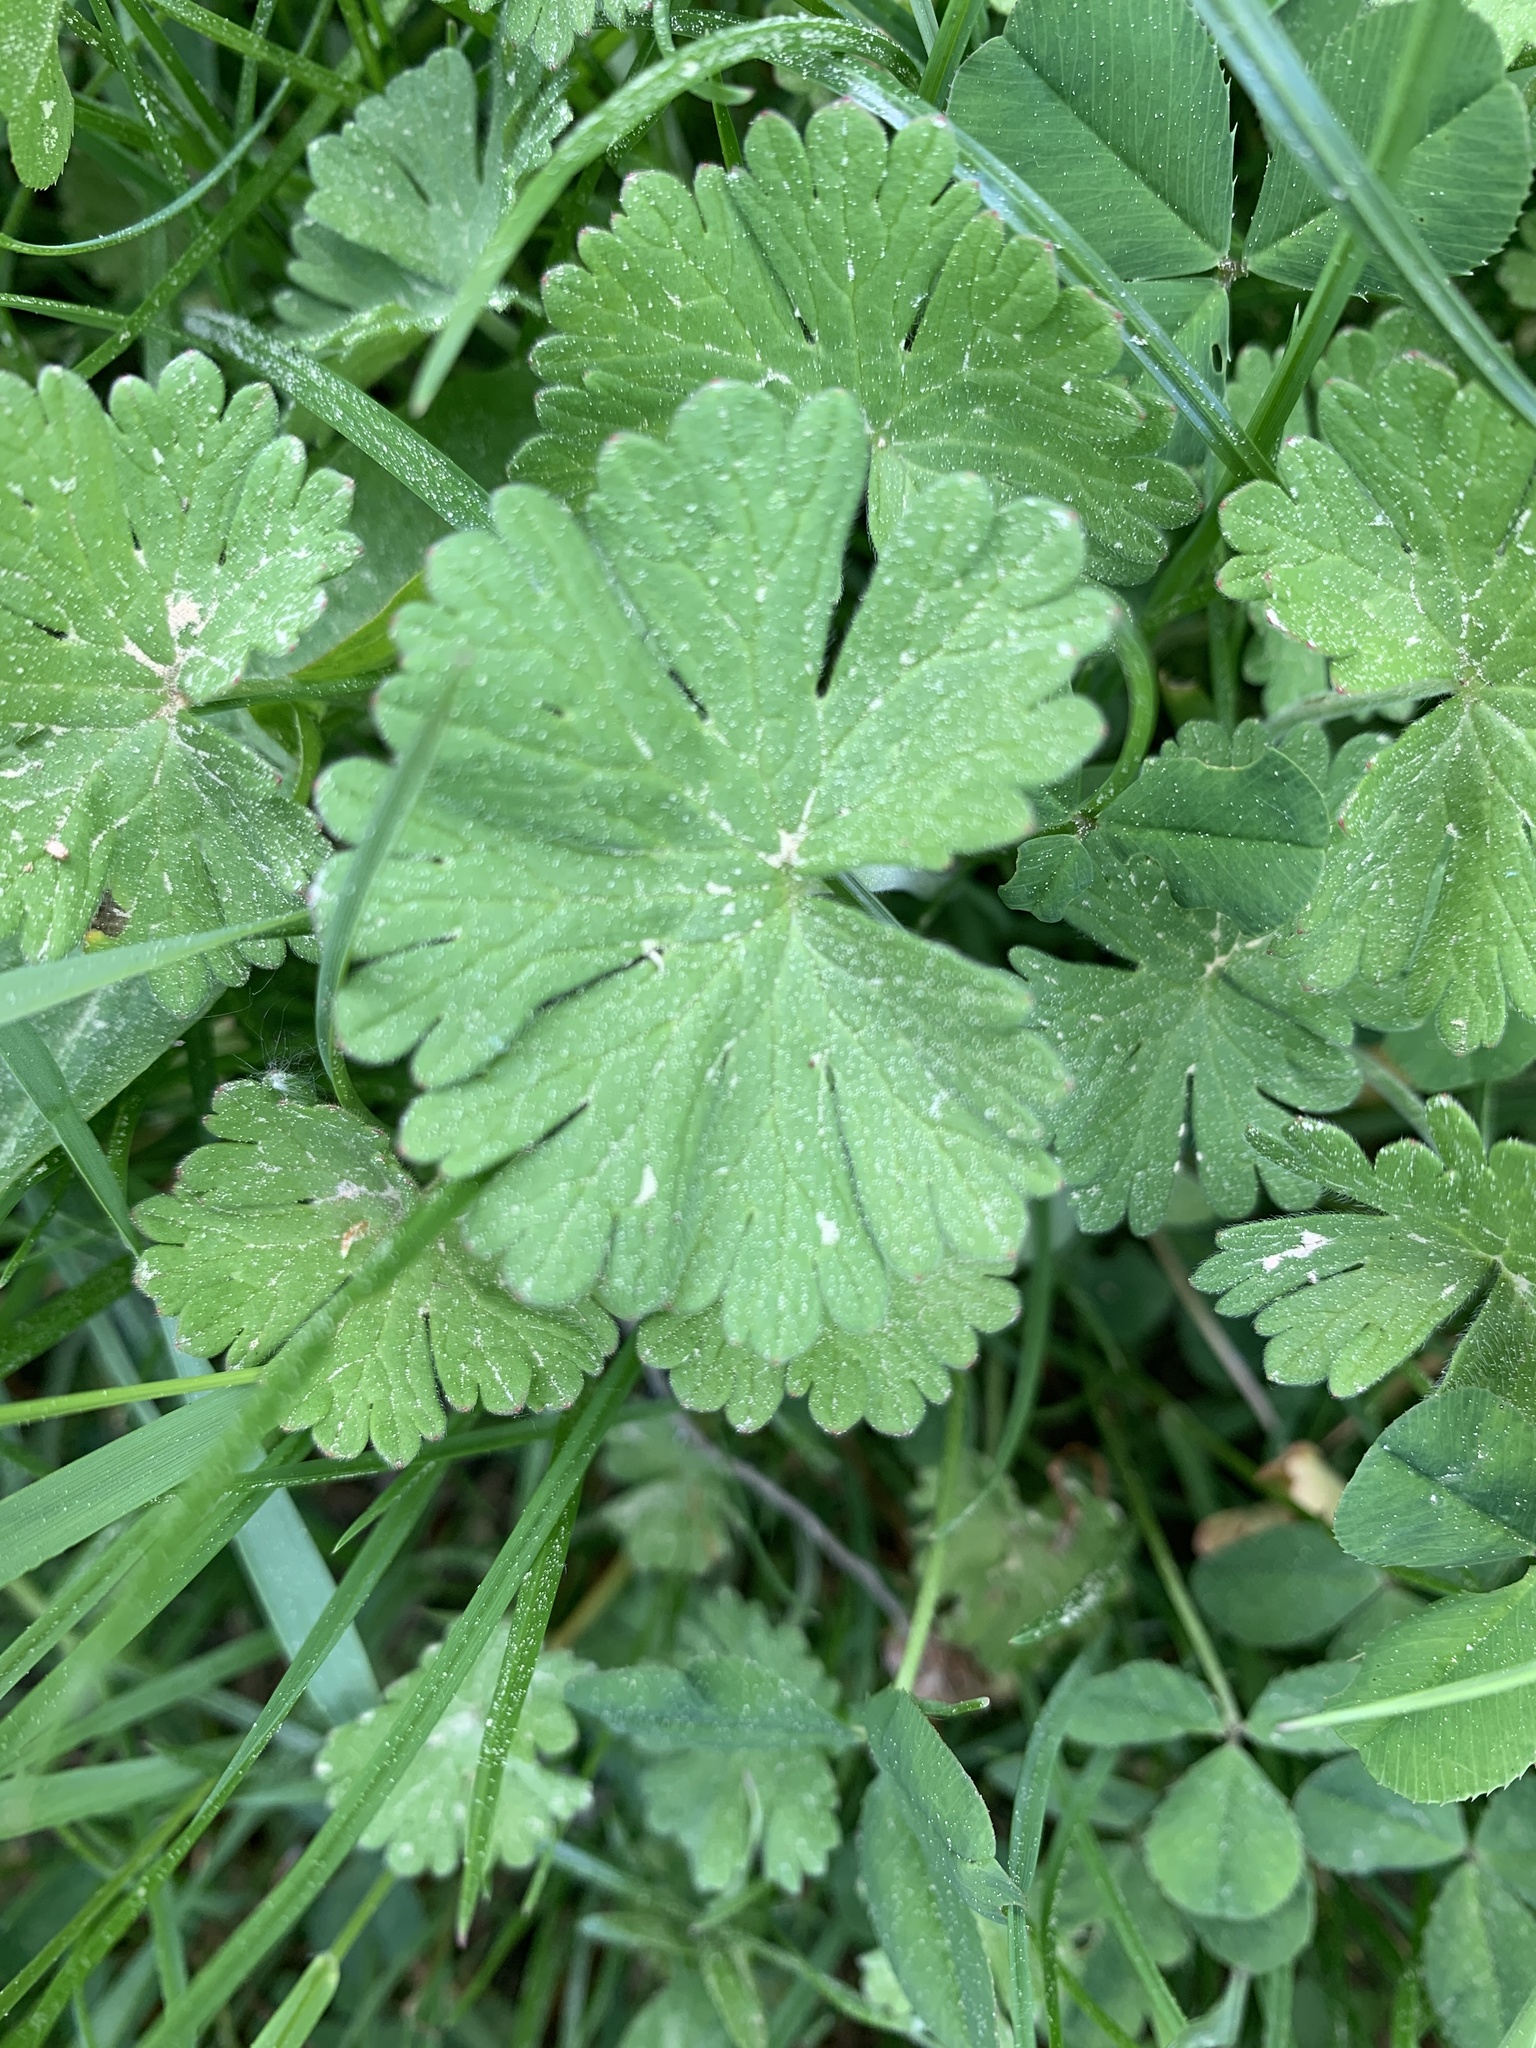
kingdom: Plantae
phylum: Tracheophyta
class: Magnoliopsida
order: Geraniales
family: Geraniaceae
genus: Geranium
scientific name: Geranium pusillum
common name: Small geranium
